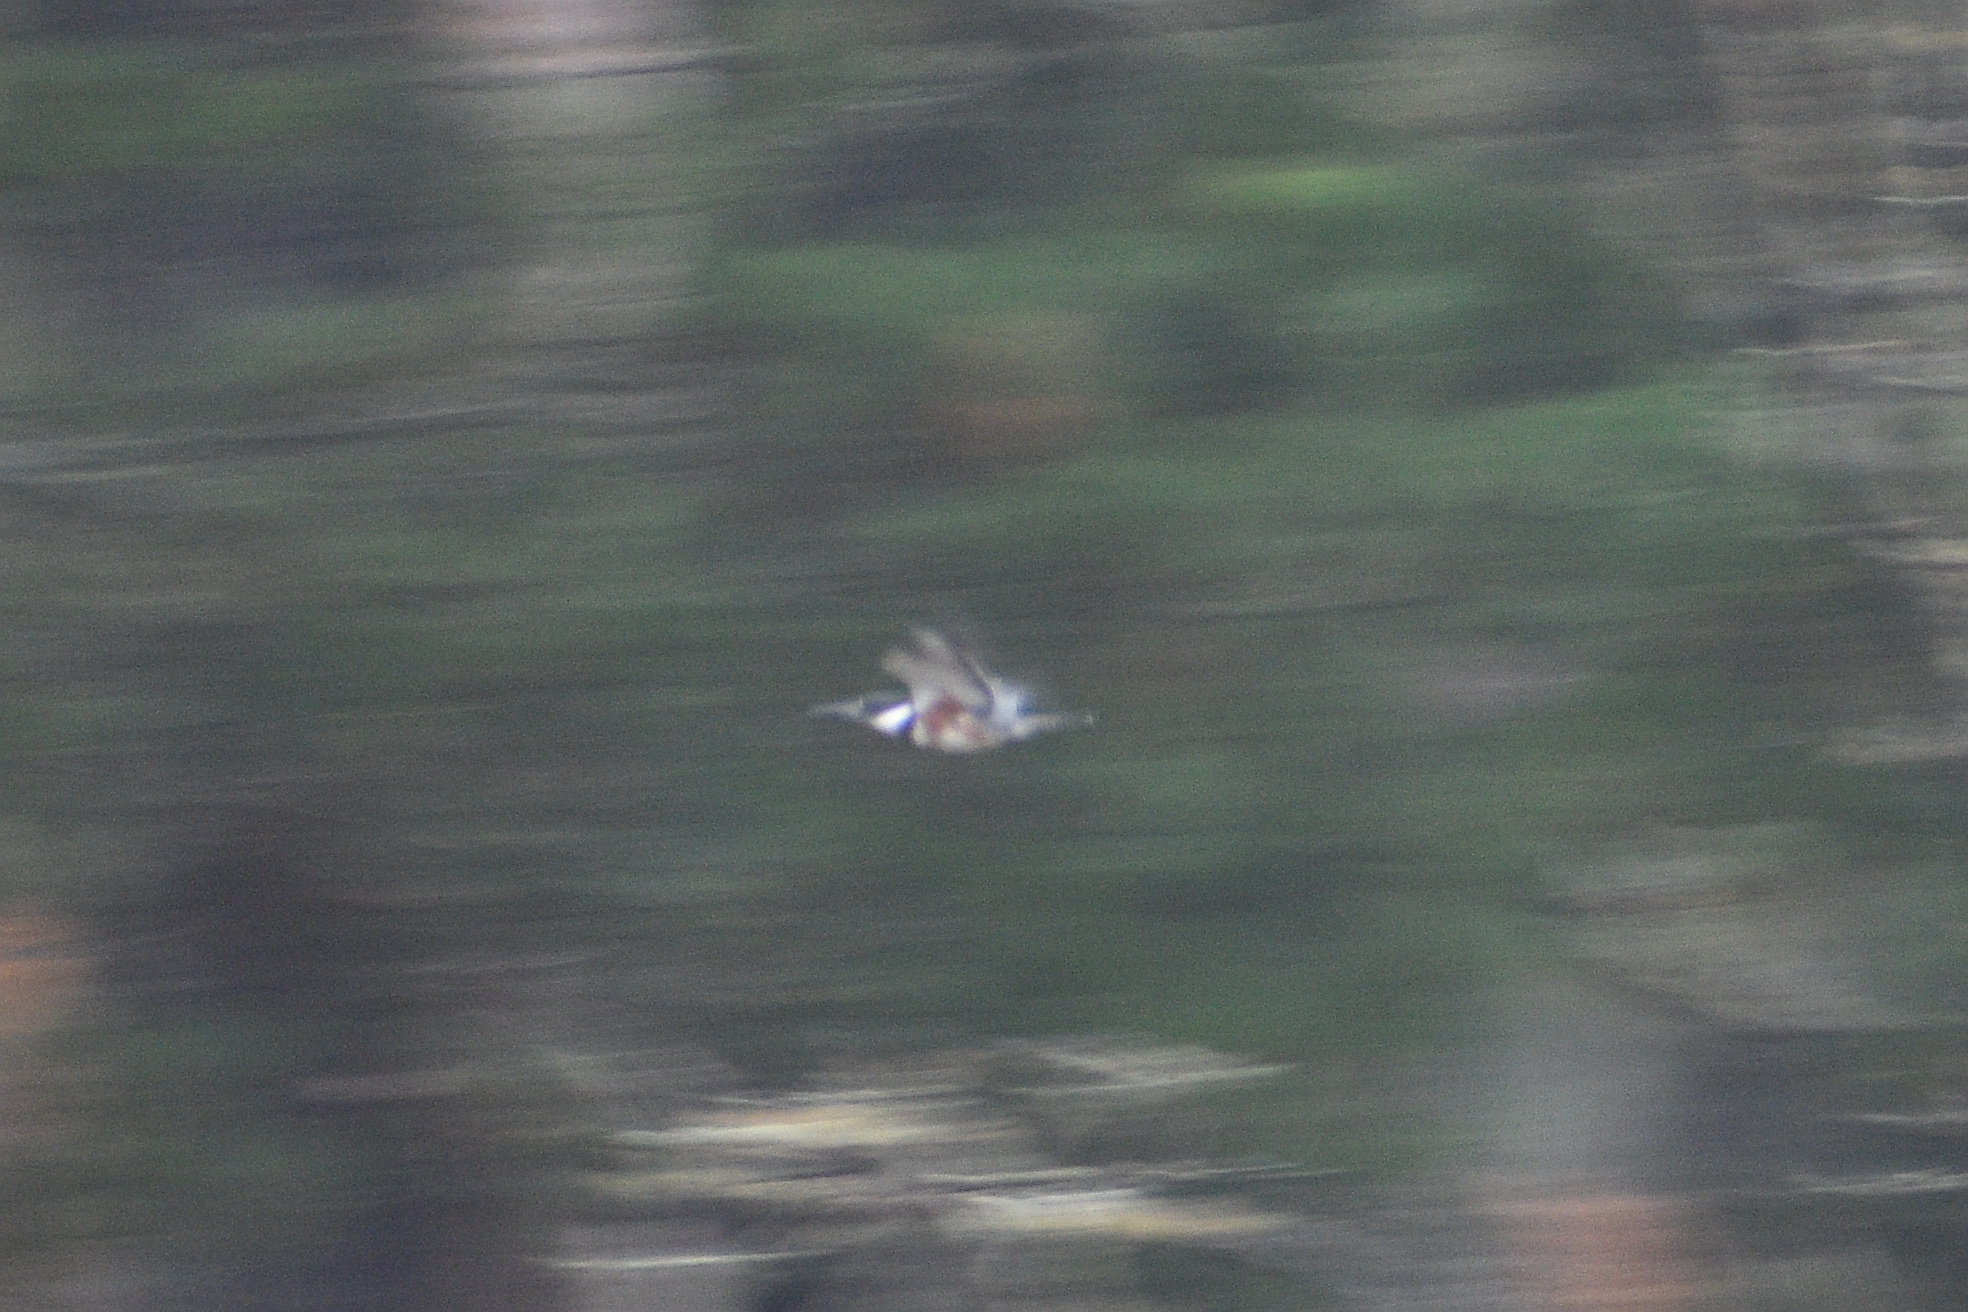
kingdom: Animalia
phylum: Chordata
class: Aves
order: Coraciiformes
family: Alcedinidae
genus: Megaceryle
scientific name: Megaceryle alcyon
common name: Belted kingfisher
